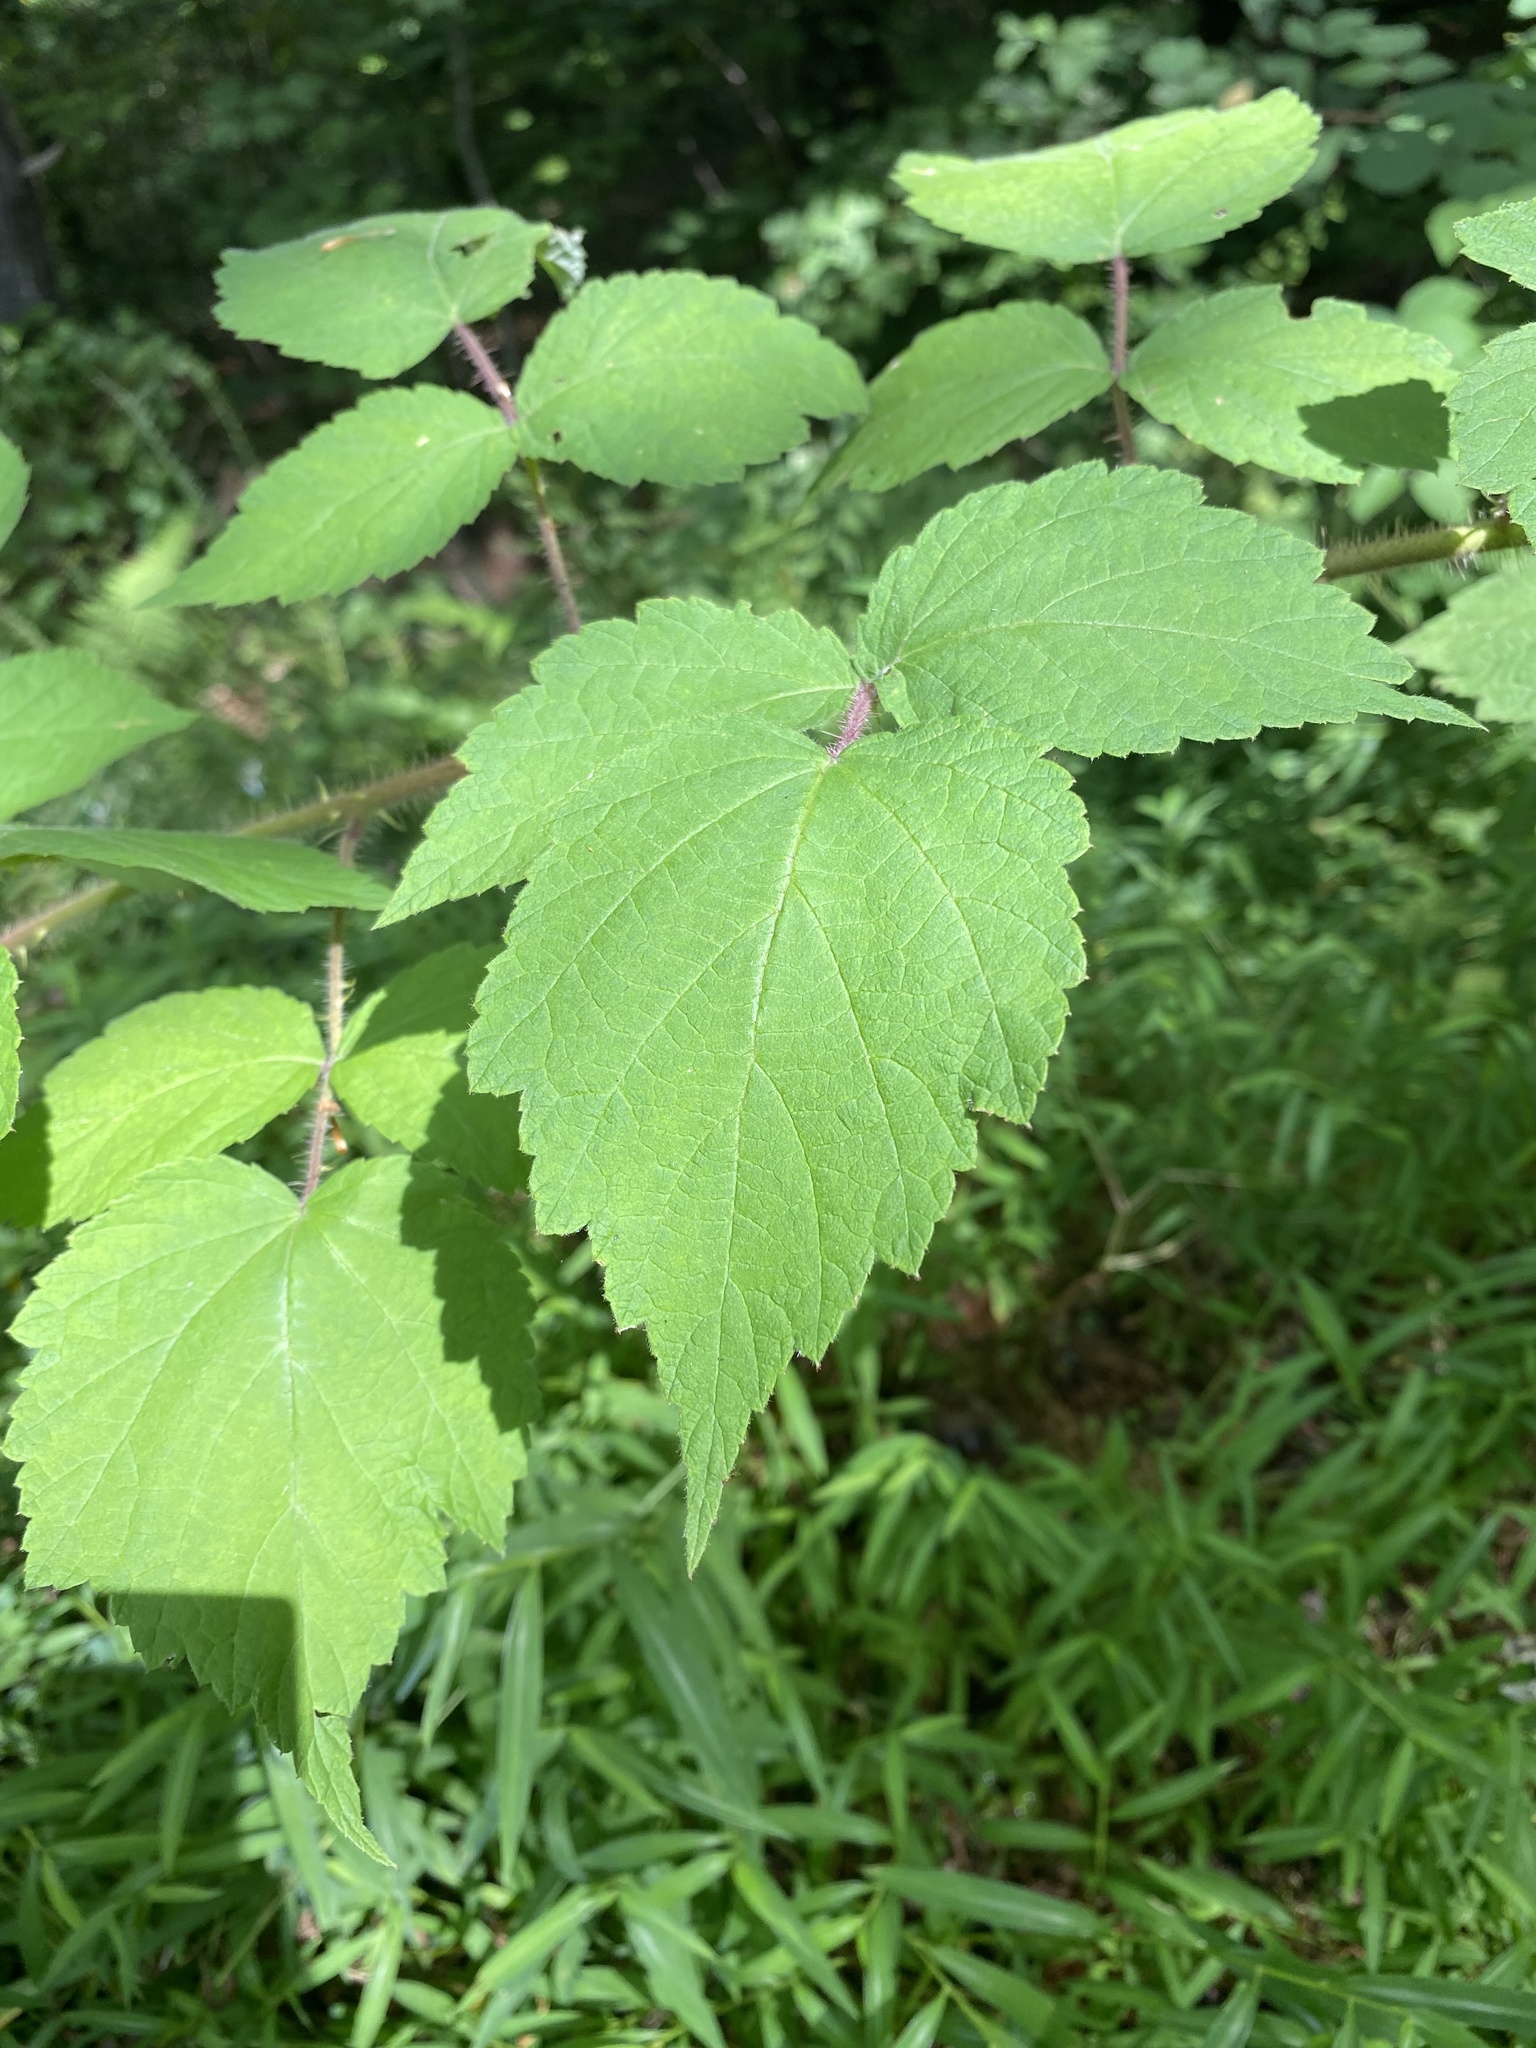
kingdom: Plantae
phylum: Tracheophyta
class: Magnoliopsida
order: Rosales
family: Rosaceae
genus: Rubus
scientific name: Rubus phoenicolasius
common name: Japanese wineberry
